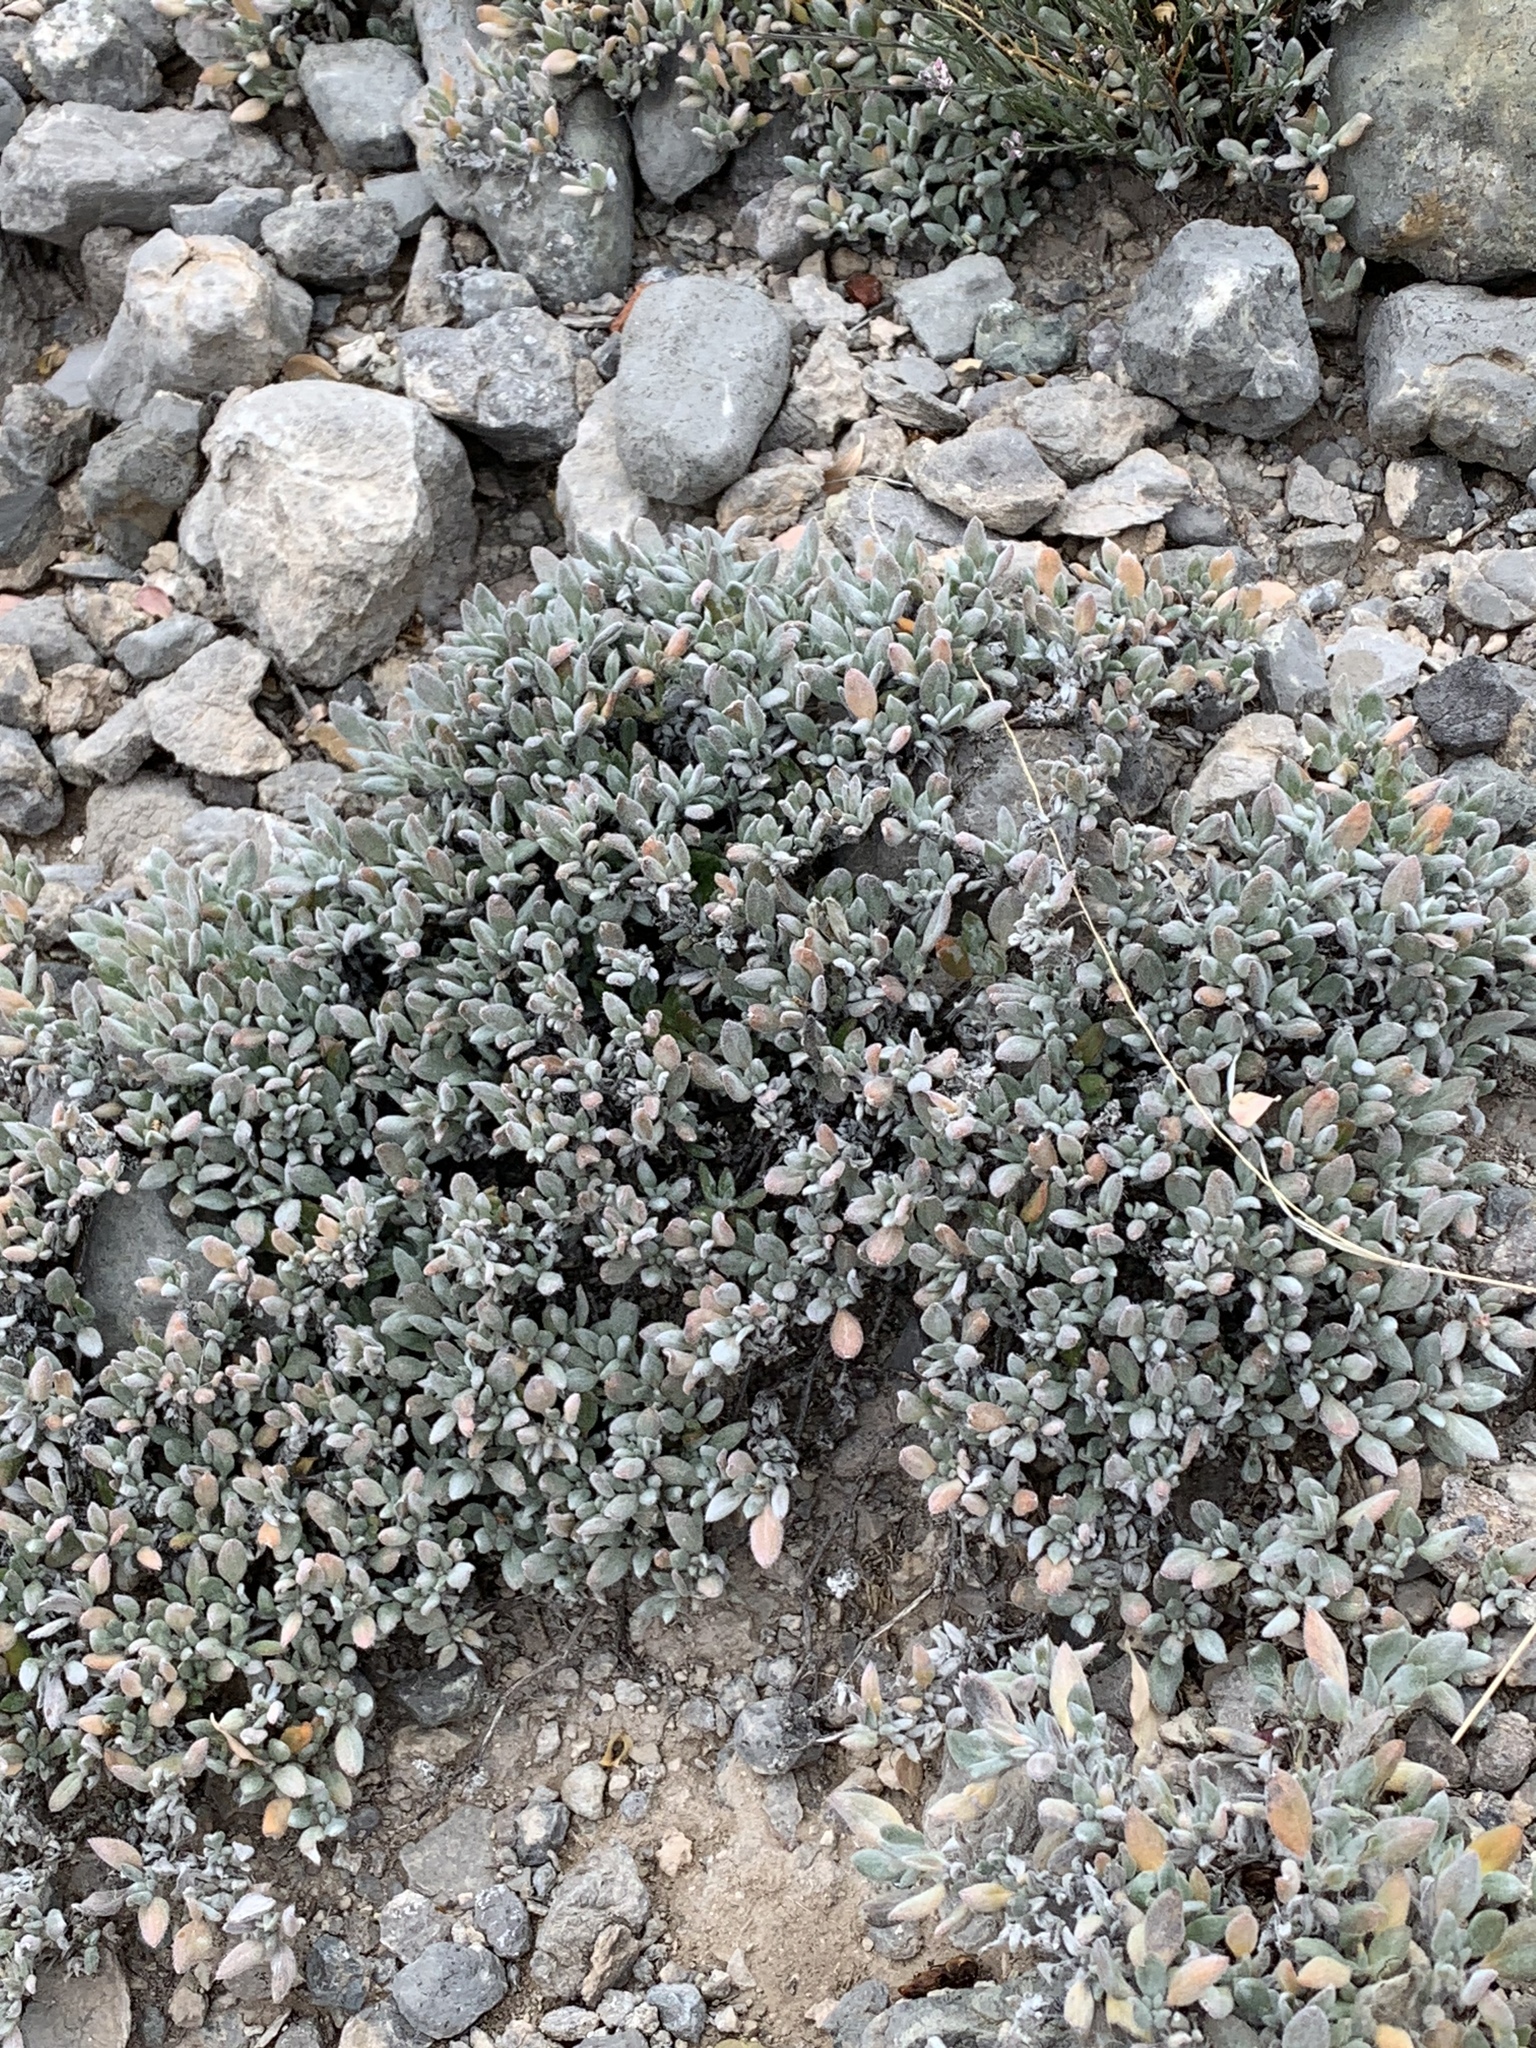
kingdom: Plantae
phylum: Tracheophyta
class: Magnoliopsida
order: Boraginales
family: Ehretiaceae
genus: Tiquilia
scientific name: Tiquilia canescens
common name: Hairy tiquilia
